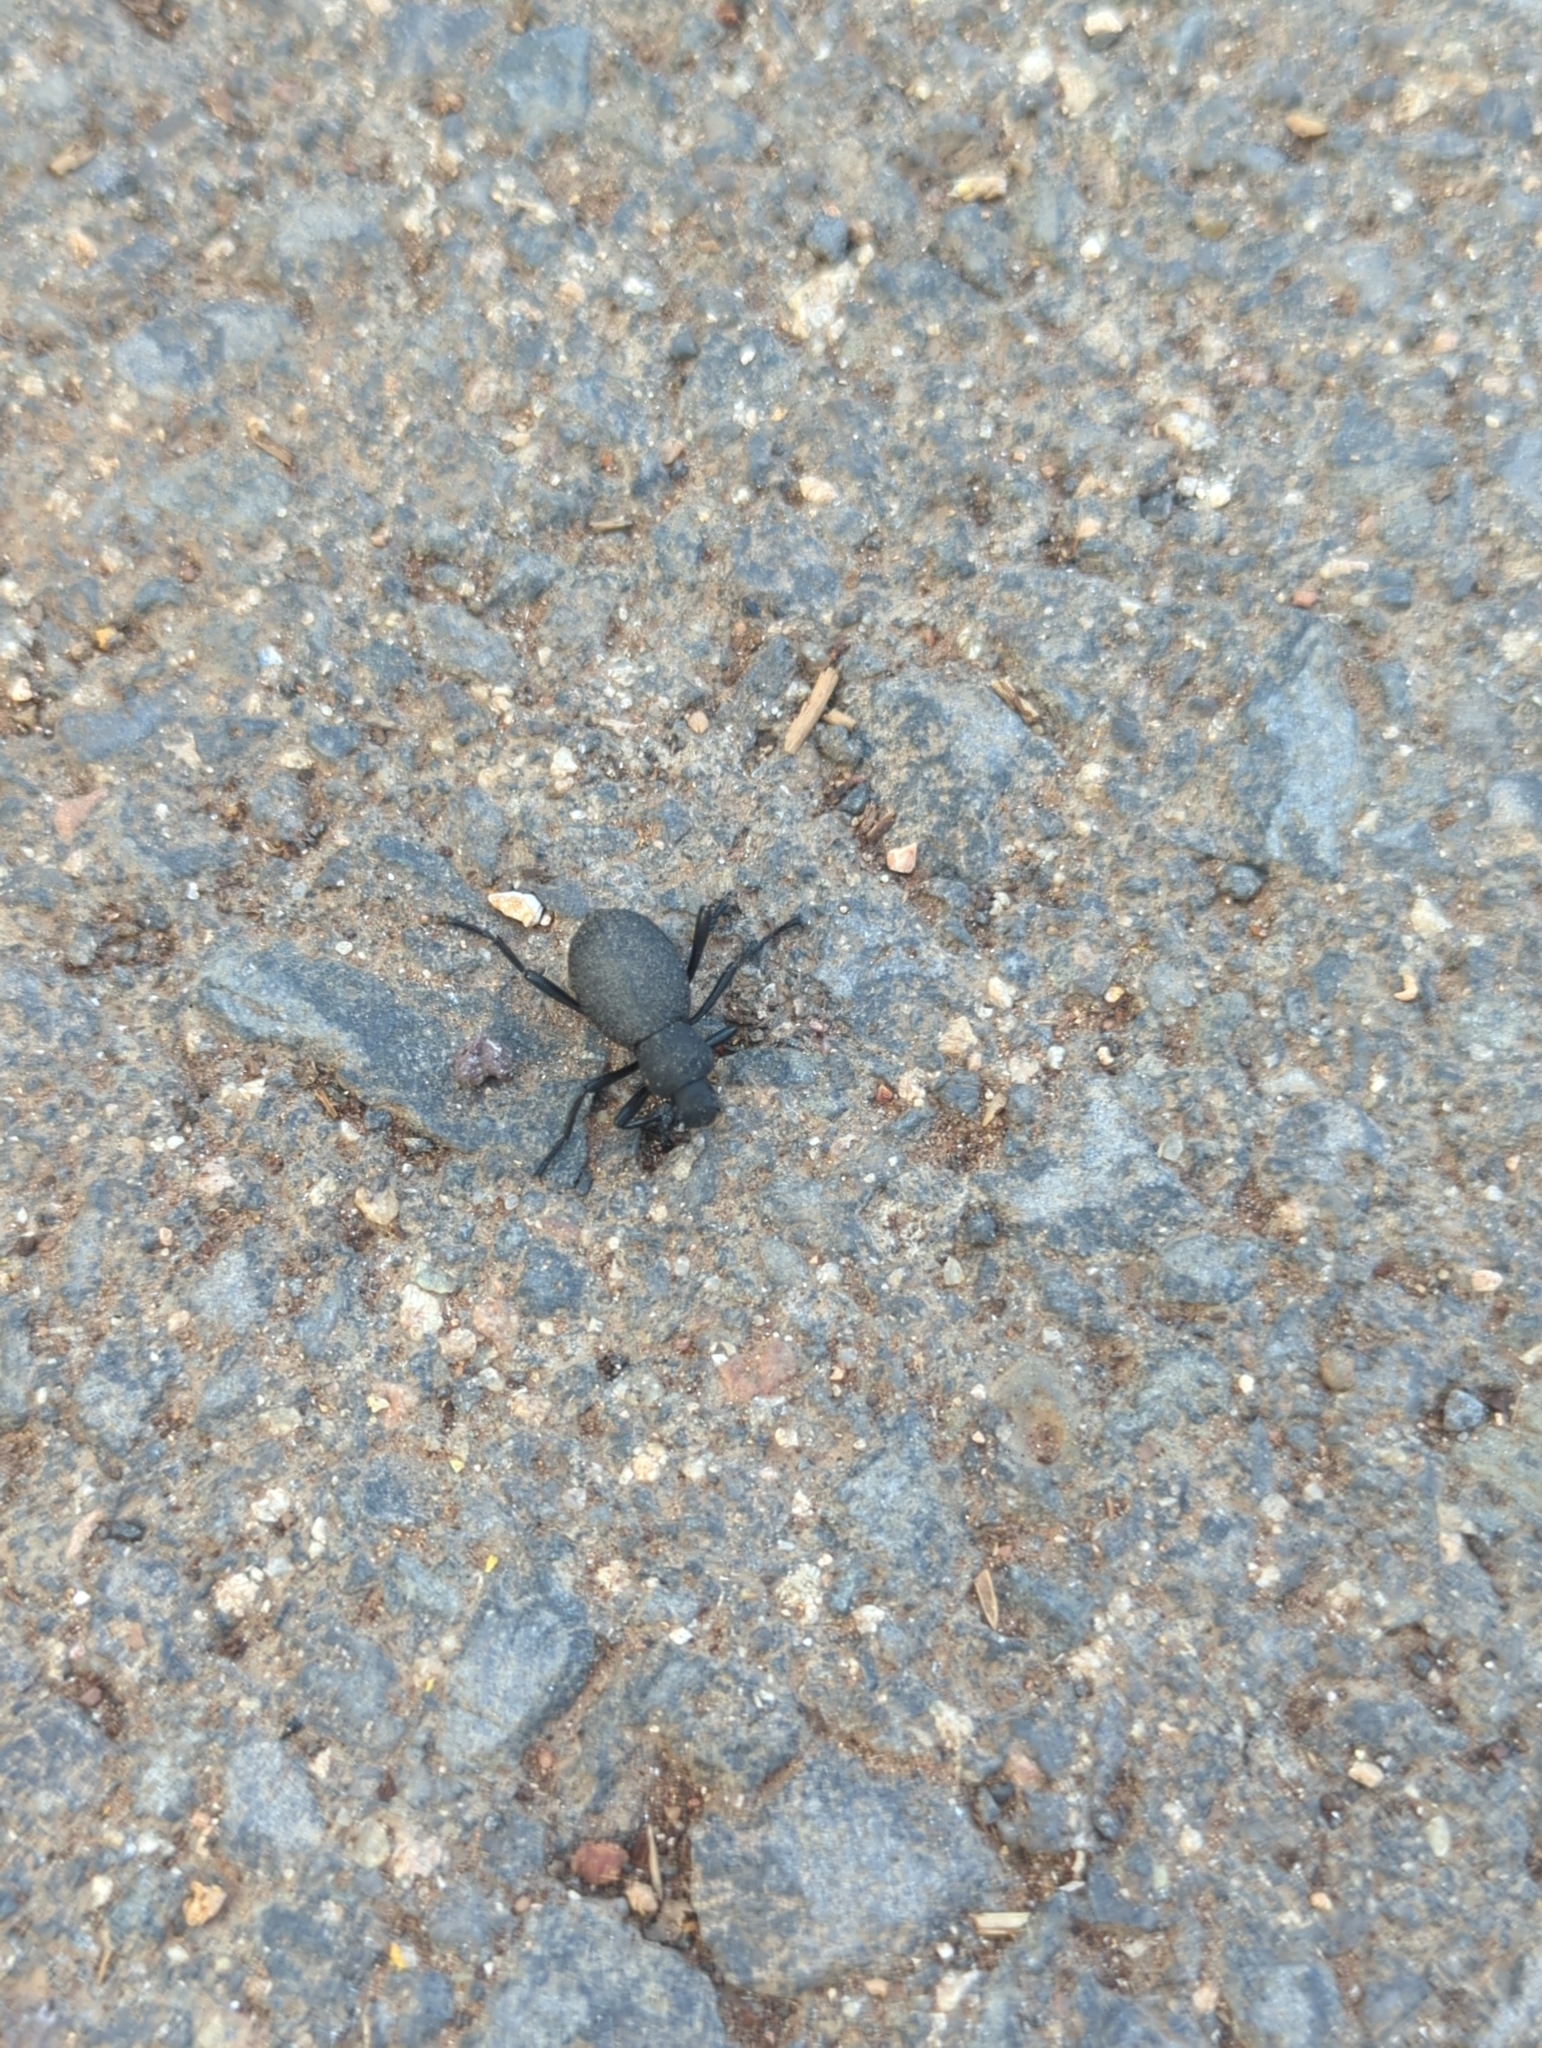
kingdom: Animalia
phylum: Arthropoda
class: Insecta
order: Coleoptera
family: Tenebrionidae
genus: Eleodes
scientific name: Eleodes pilosa
